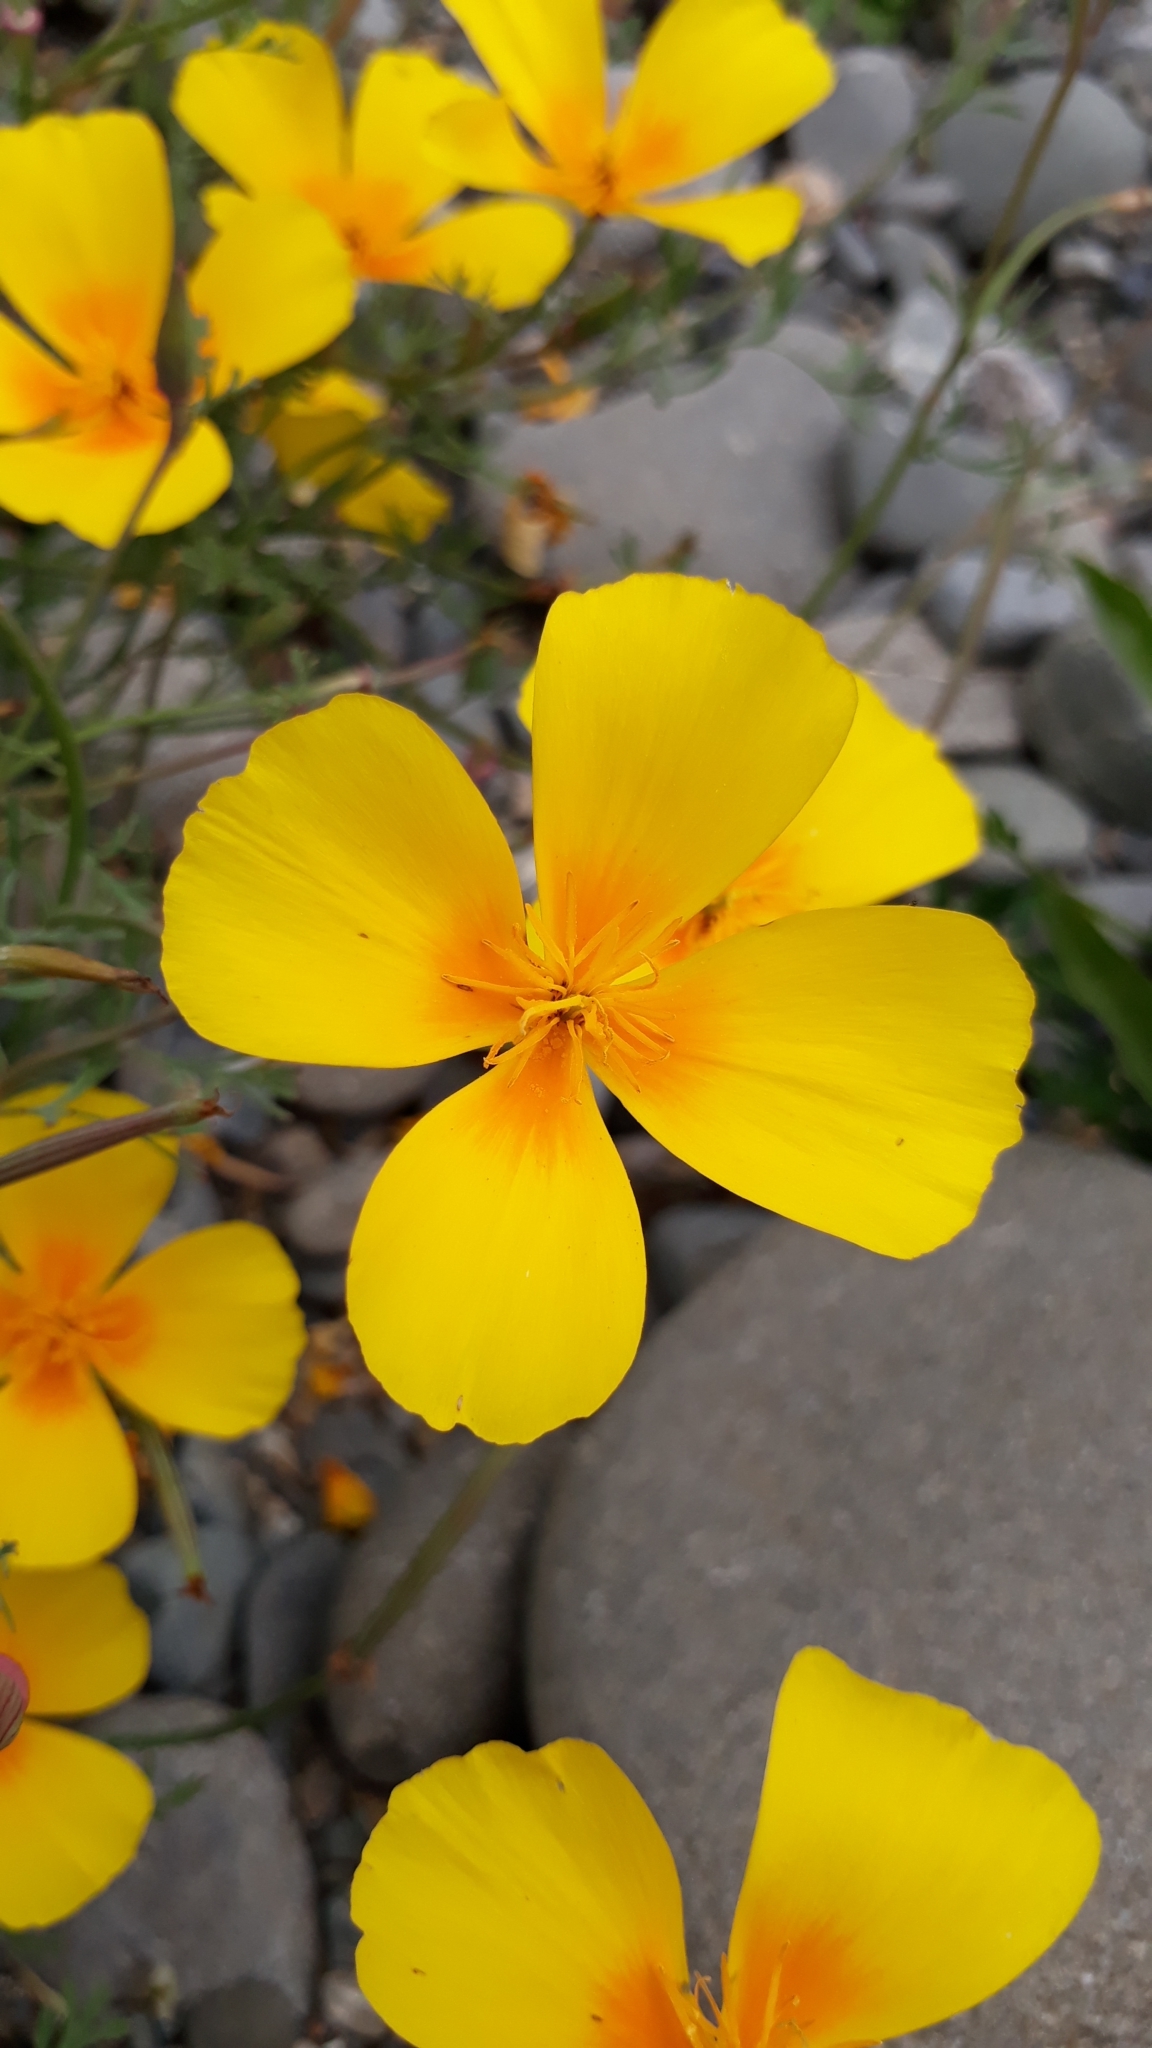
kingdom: Plantae
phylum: Tracheophyta
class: Magnoliopsida
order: Ranunculales
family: Papaveraceae
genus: Eschscholzia
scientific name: Eschscholzia californica
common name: California poppy
